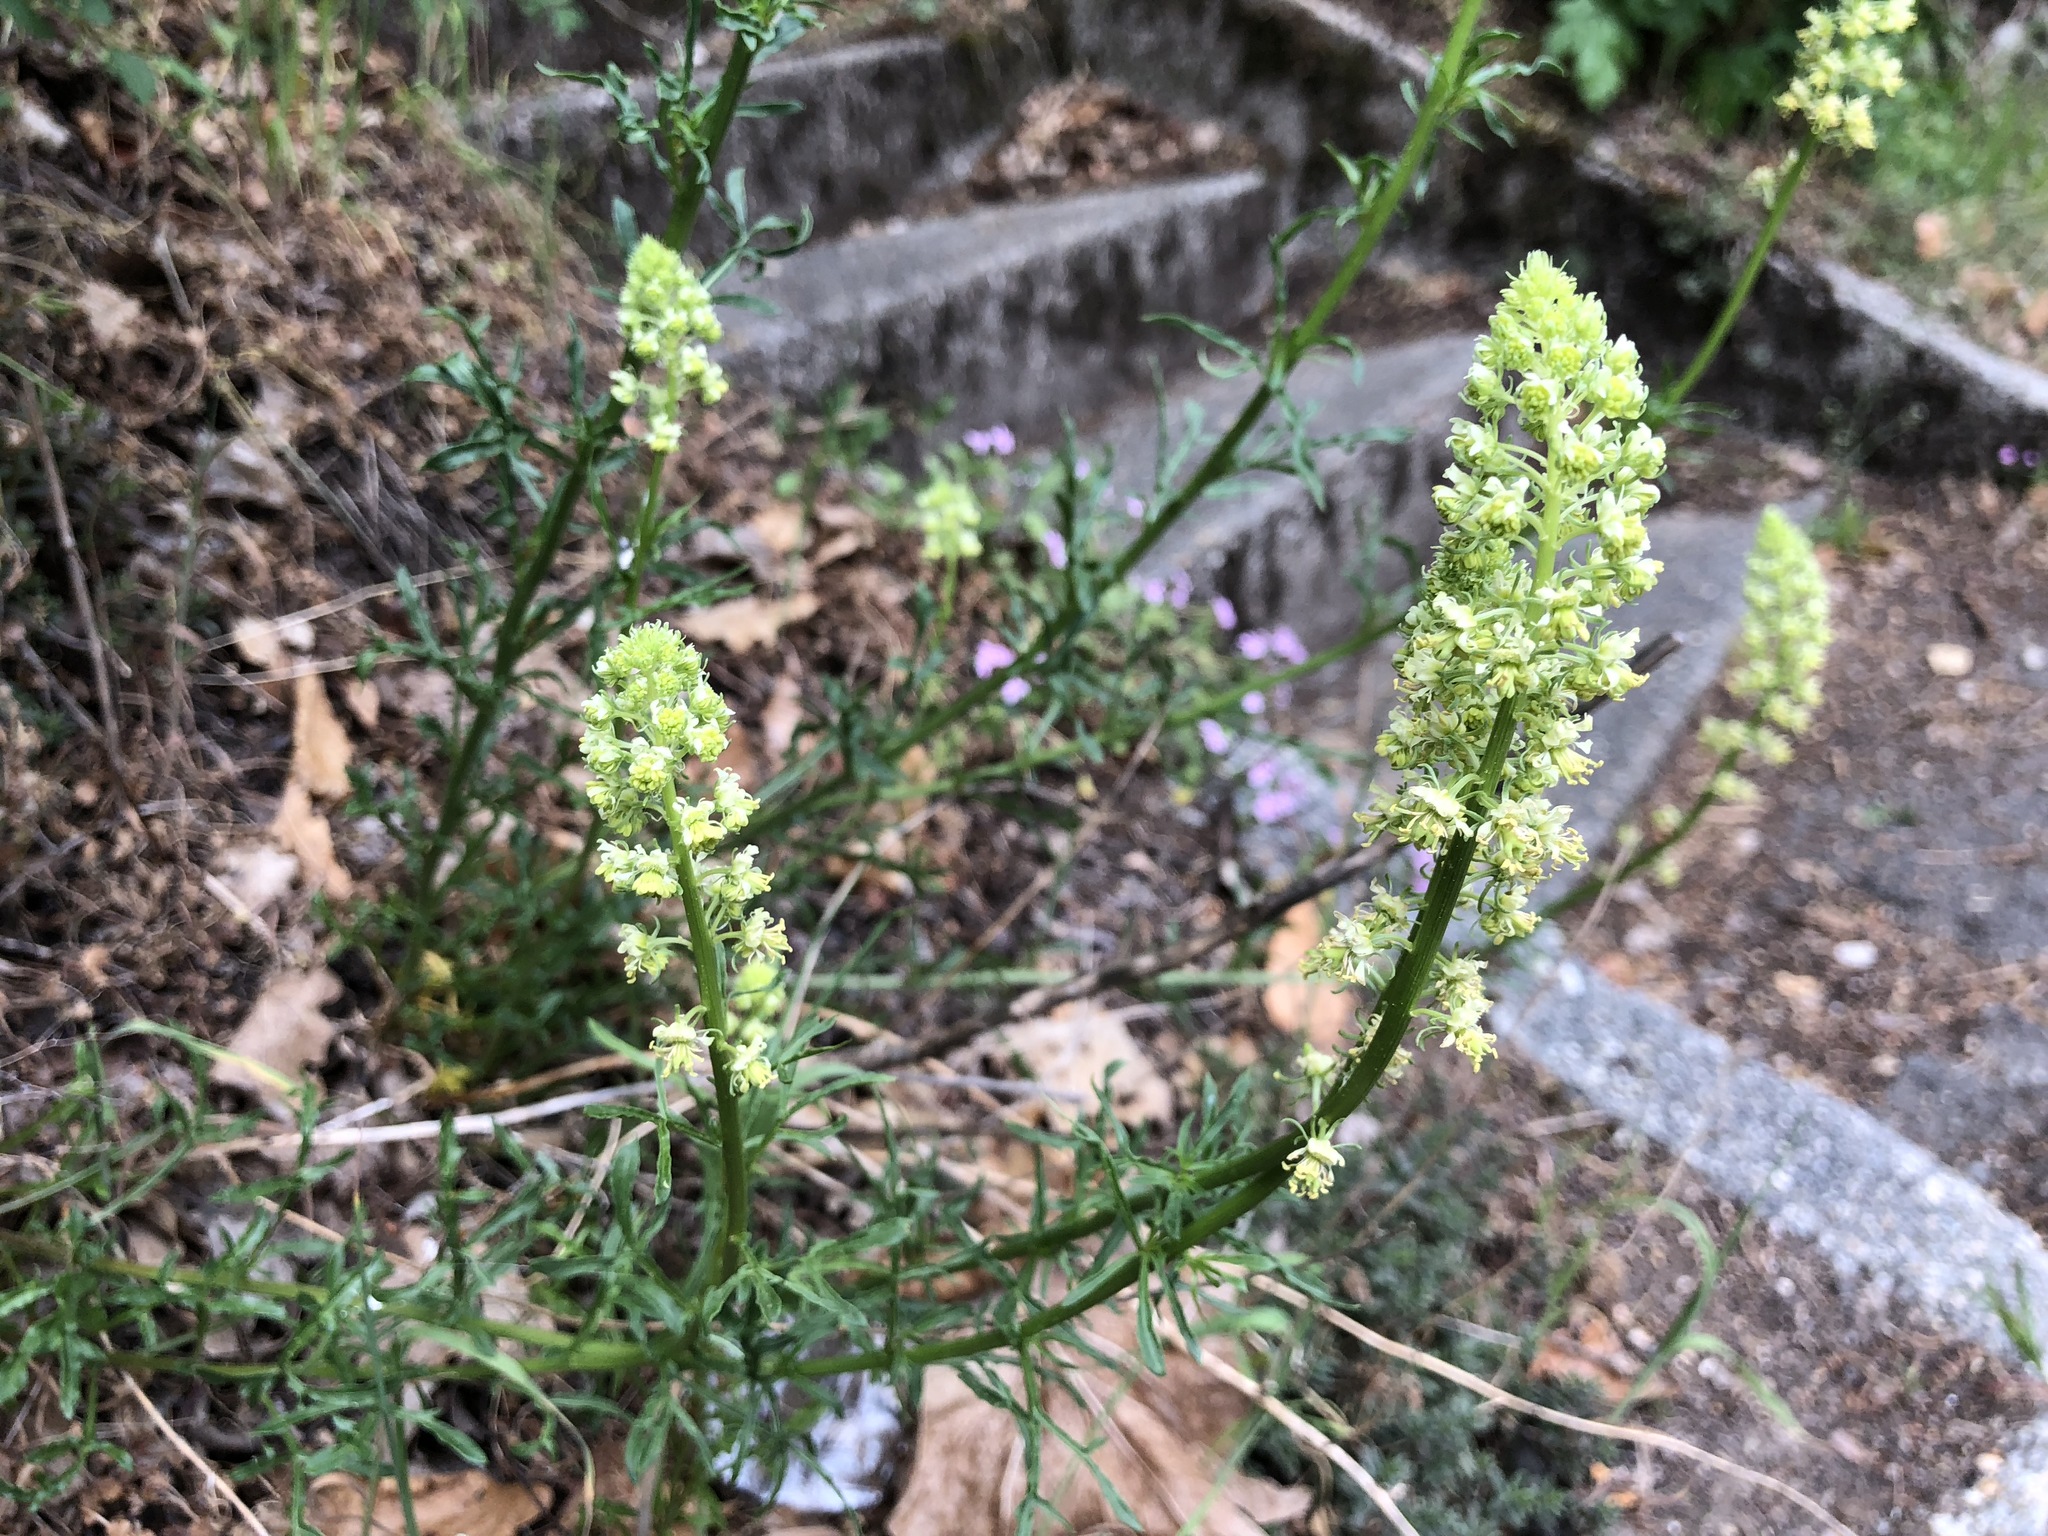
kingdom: Plantae
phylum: Tracheophyta
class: Magnoliopsida
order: Brassicales
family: Resedaceae
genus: Reseda
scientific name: Reseda lutea
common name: Wild mignonette
